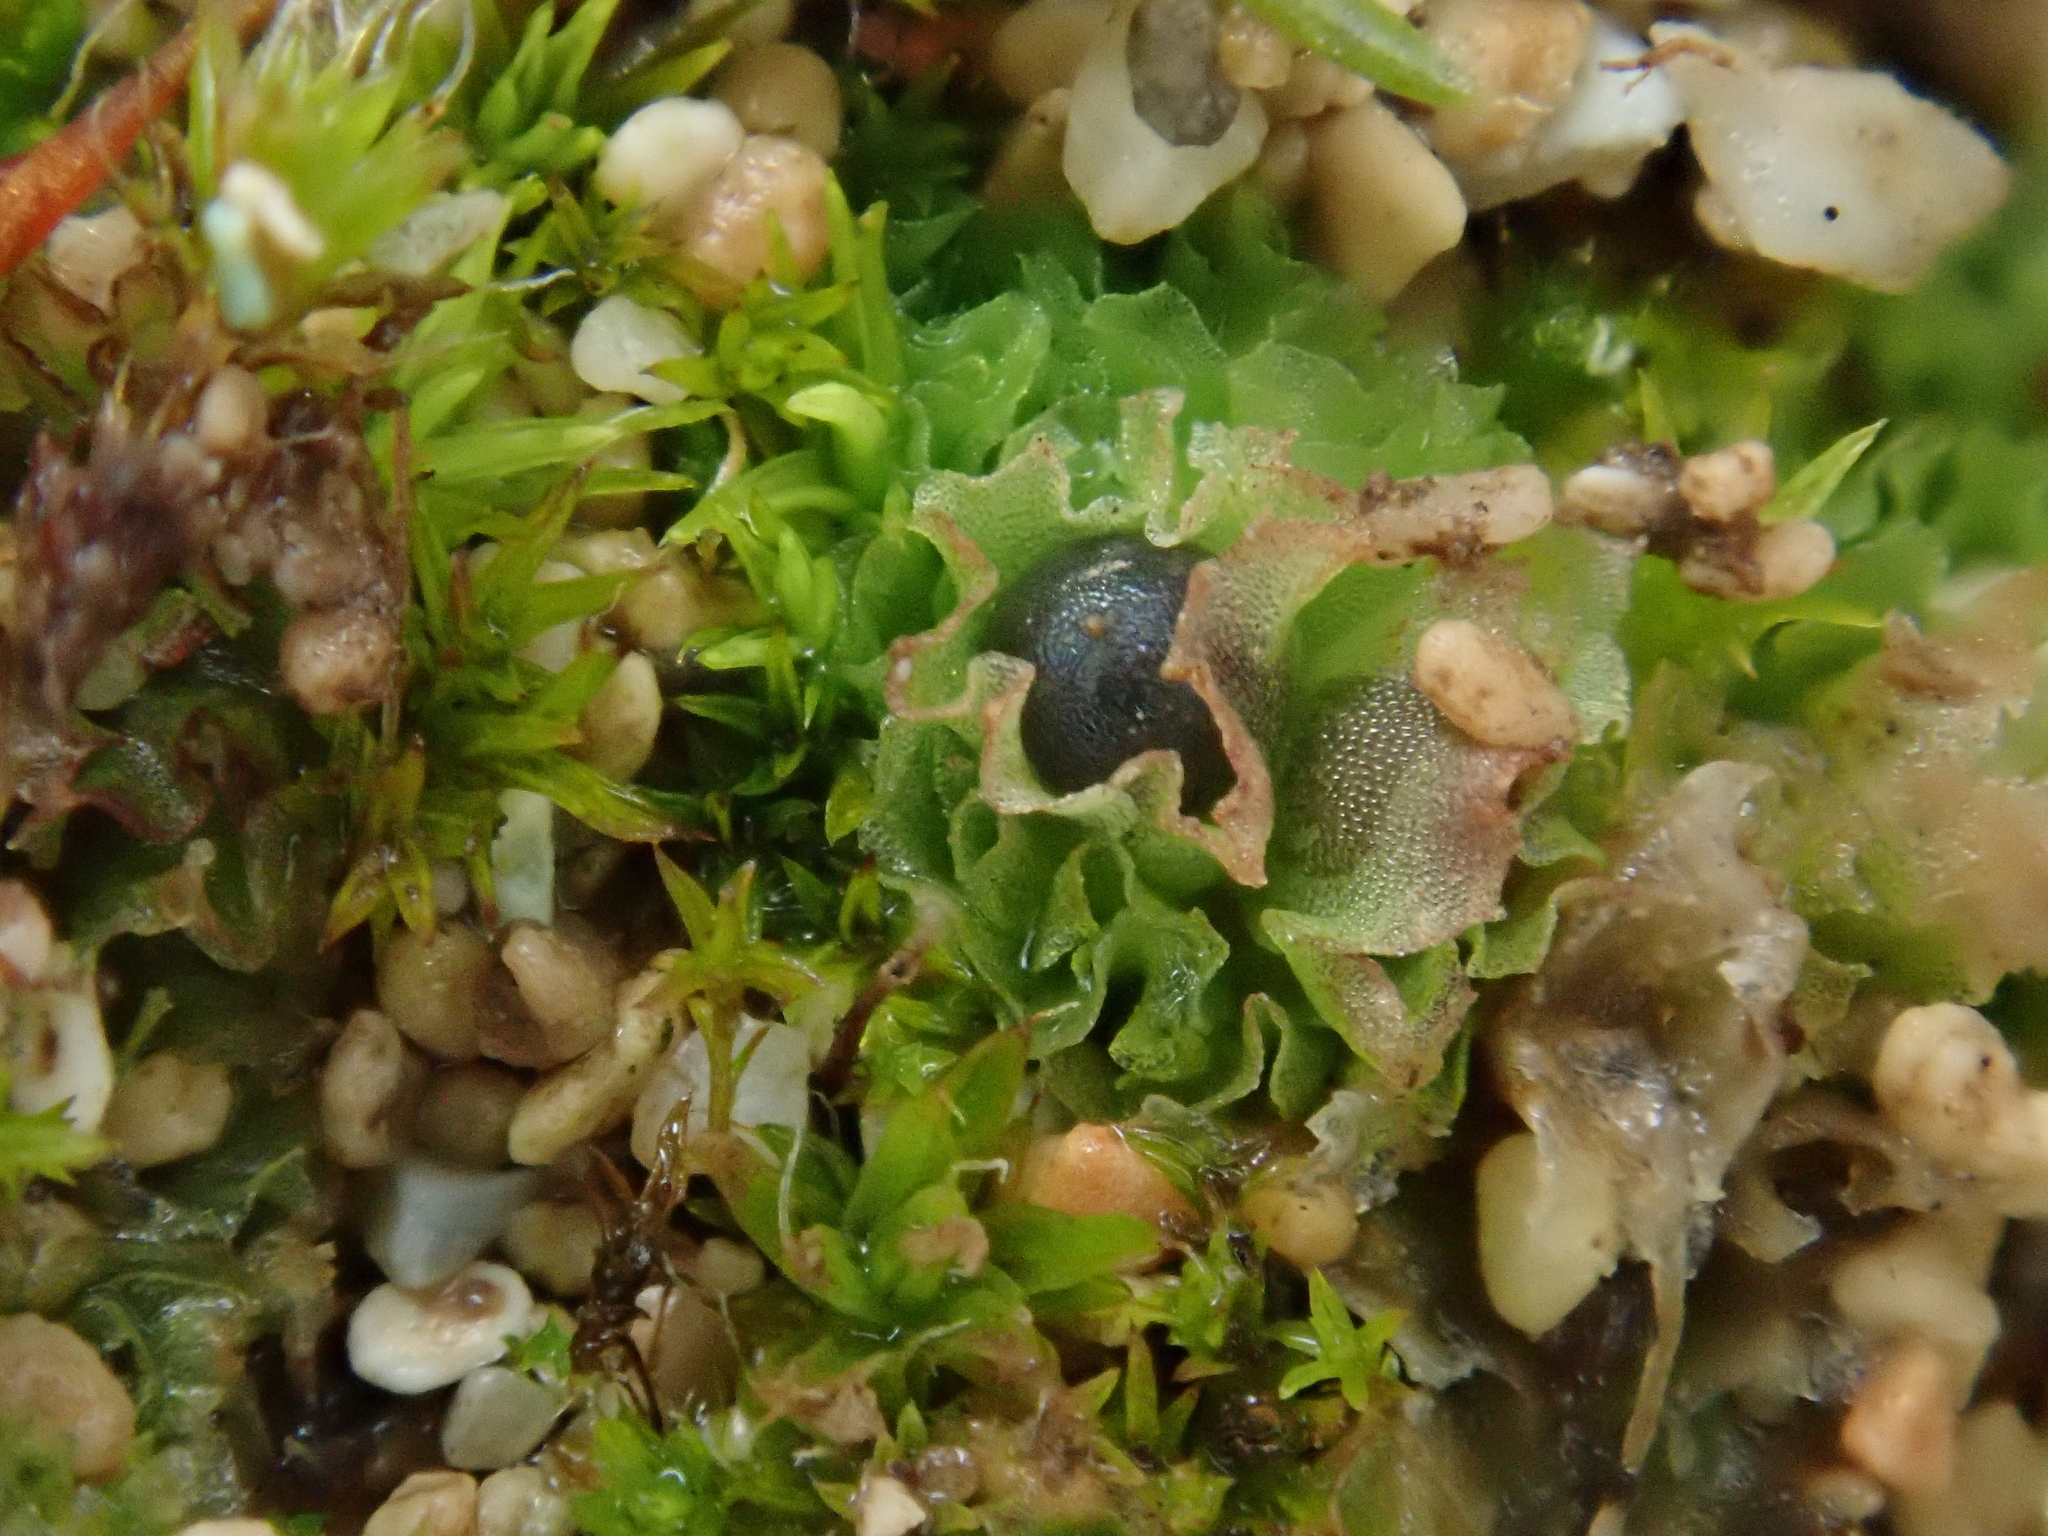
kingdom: Plantae
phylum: Marchantiophyta
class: Jungermanniopsida
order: Fossombroniales
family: Fossombroniaceae
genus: Fossombronia
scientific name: Fossombronia caespitiformis
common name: Spanish frillwort
